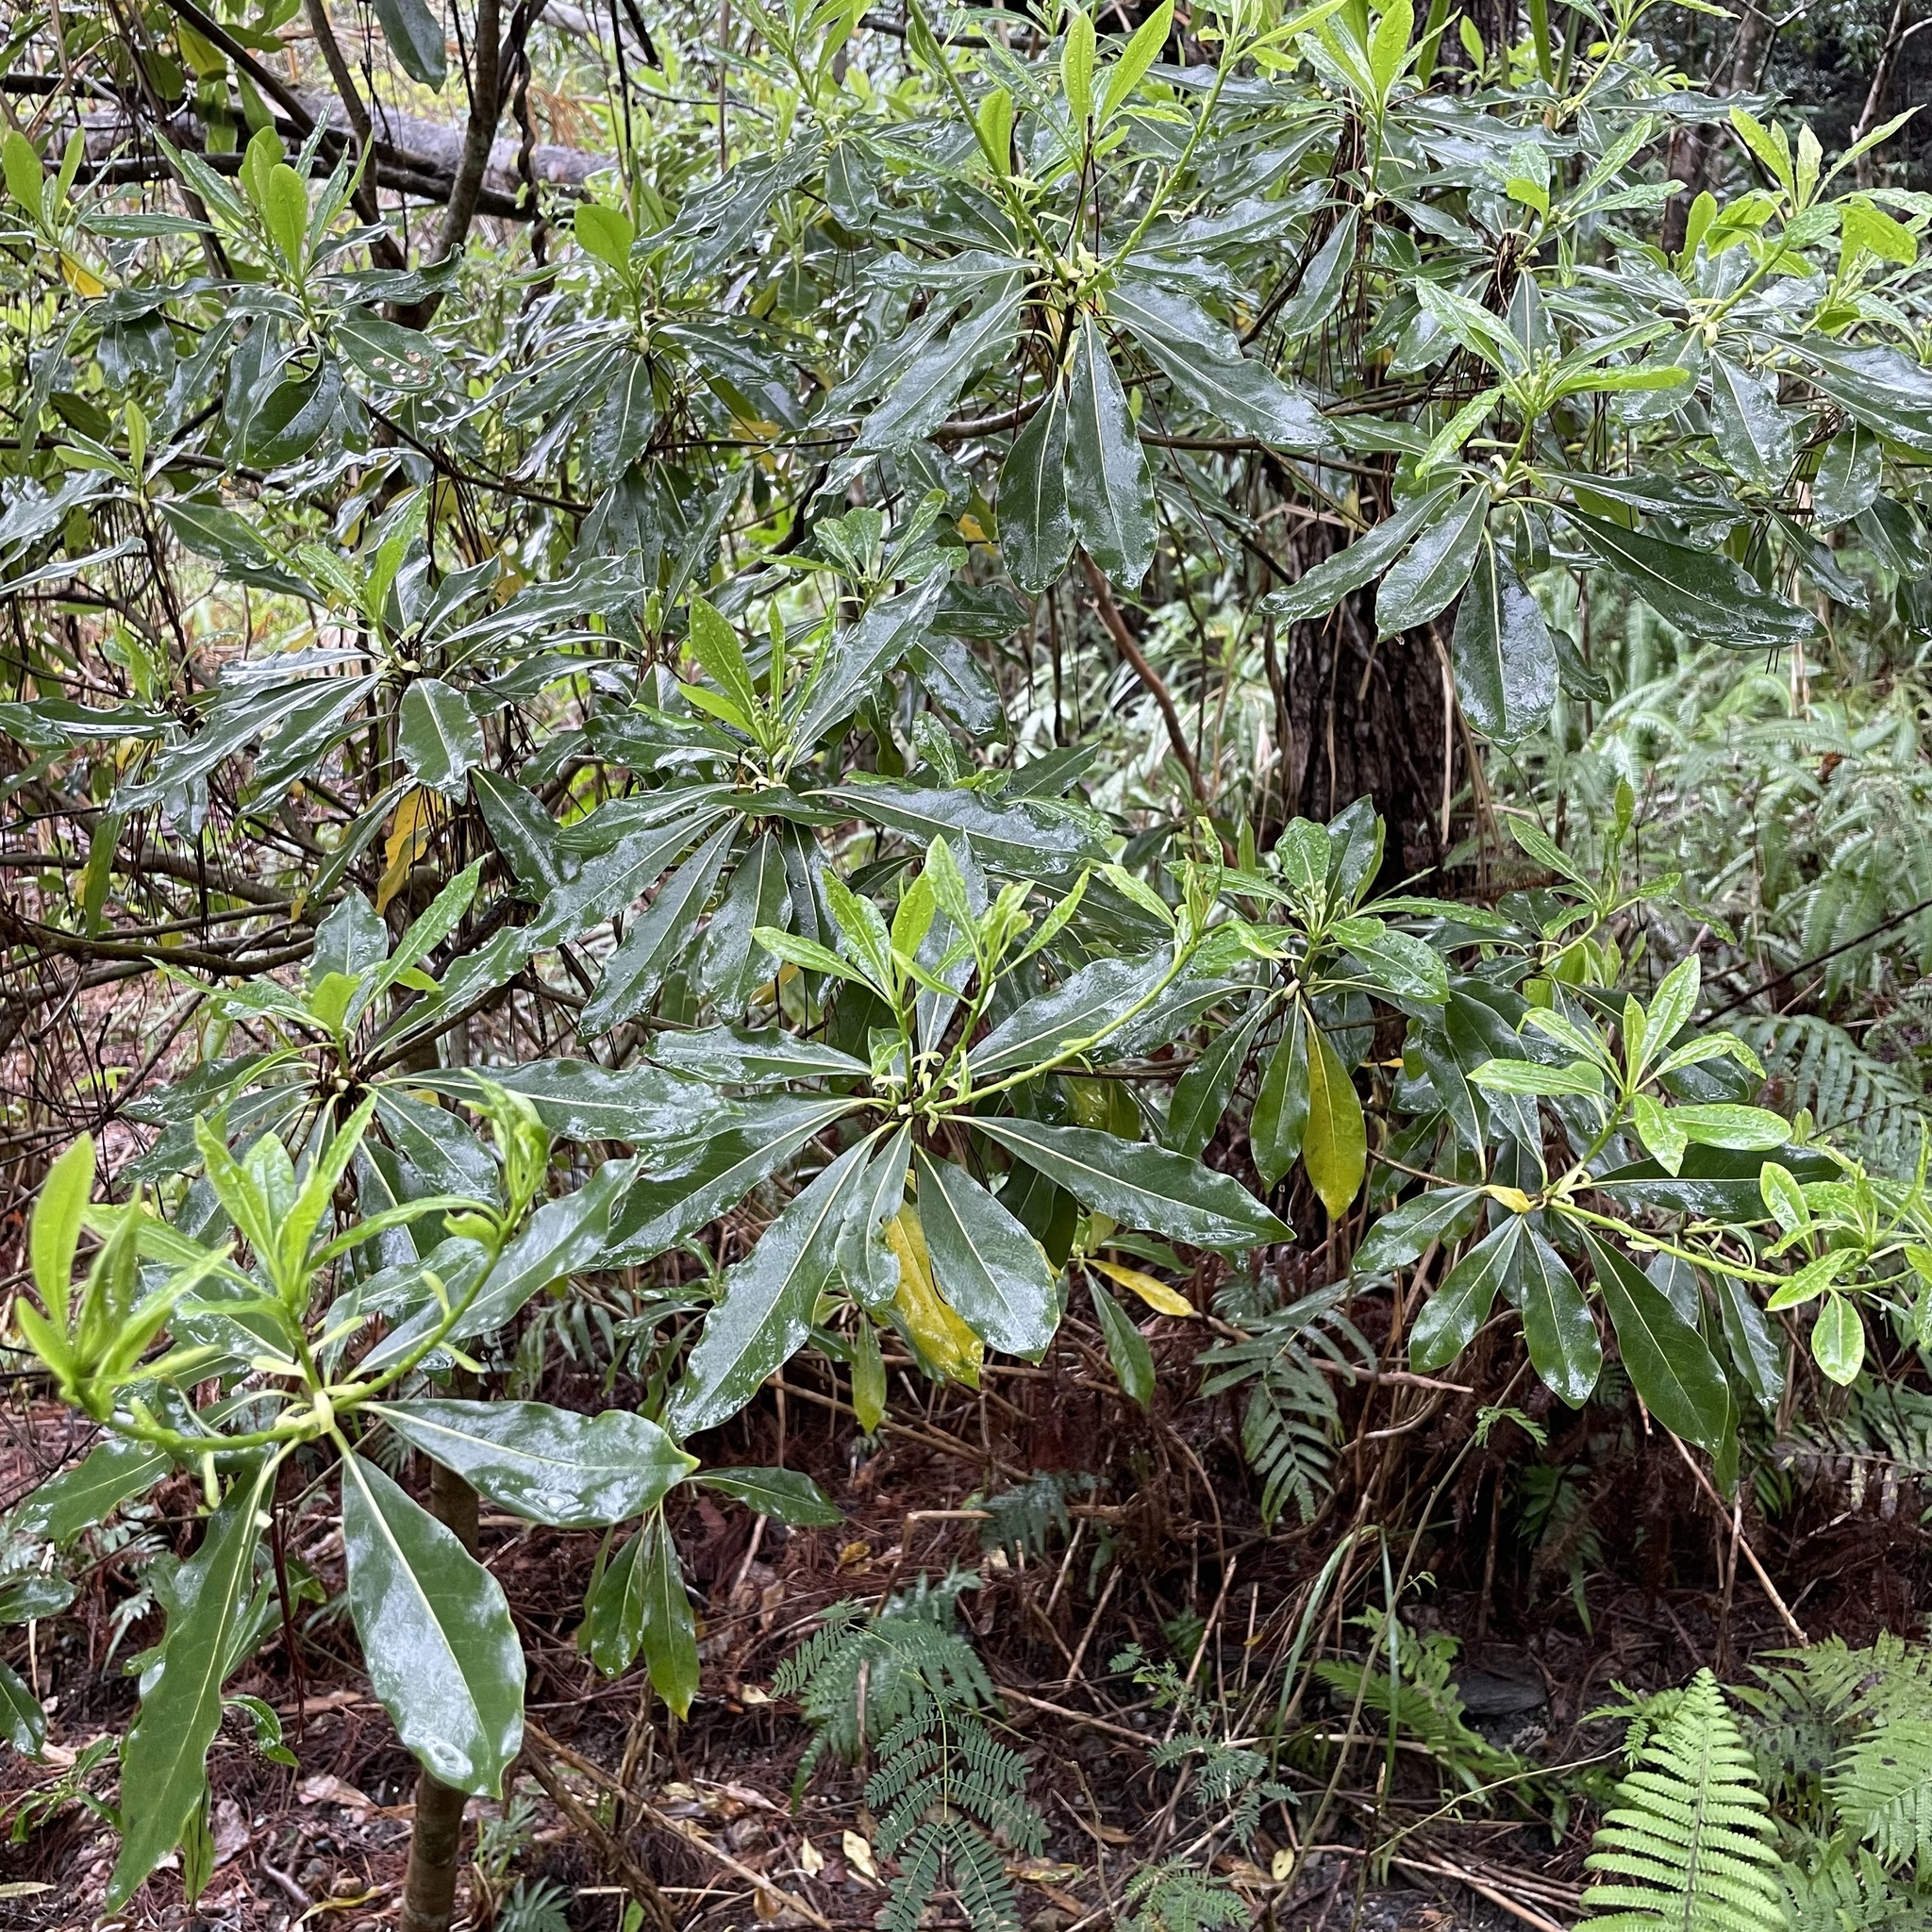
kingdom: Plantae
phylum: Tracheophyta
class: Magnoliopsida
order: Apiales
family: Pittosporaceae
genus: Pittosporum
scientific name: Pittosporum tobira
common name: Japanese cheesewood
